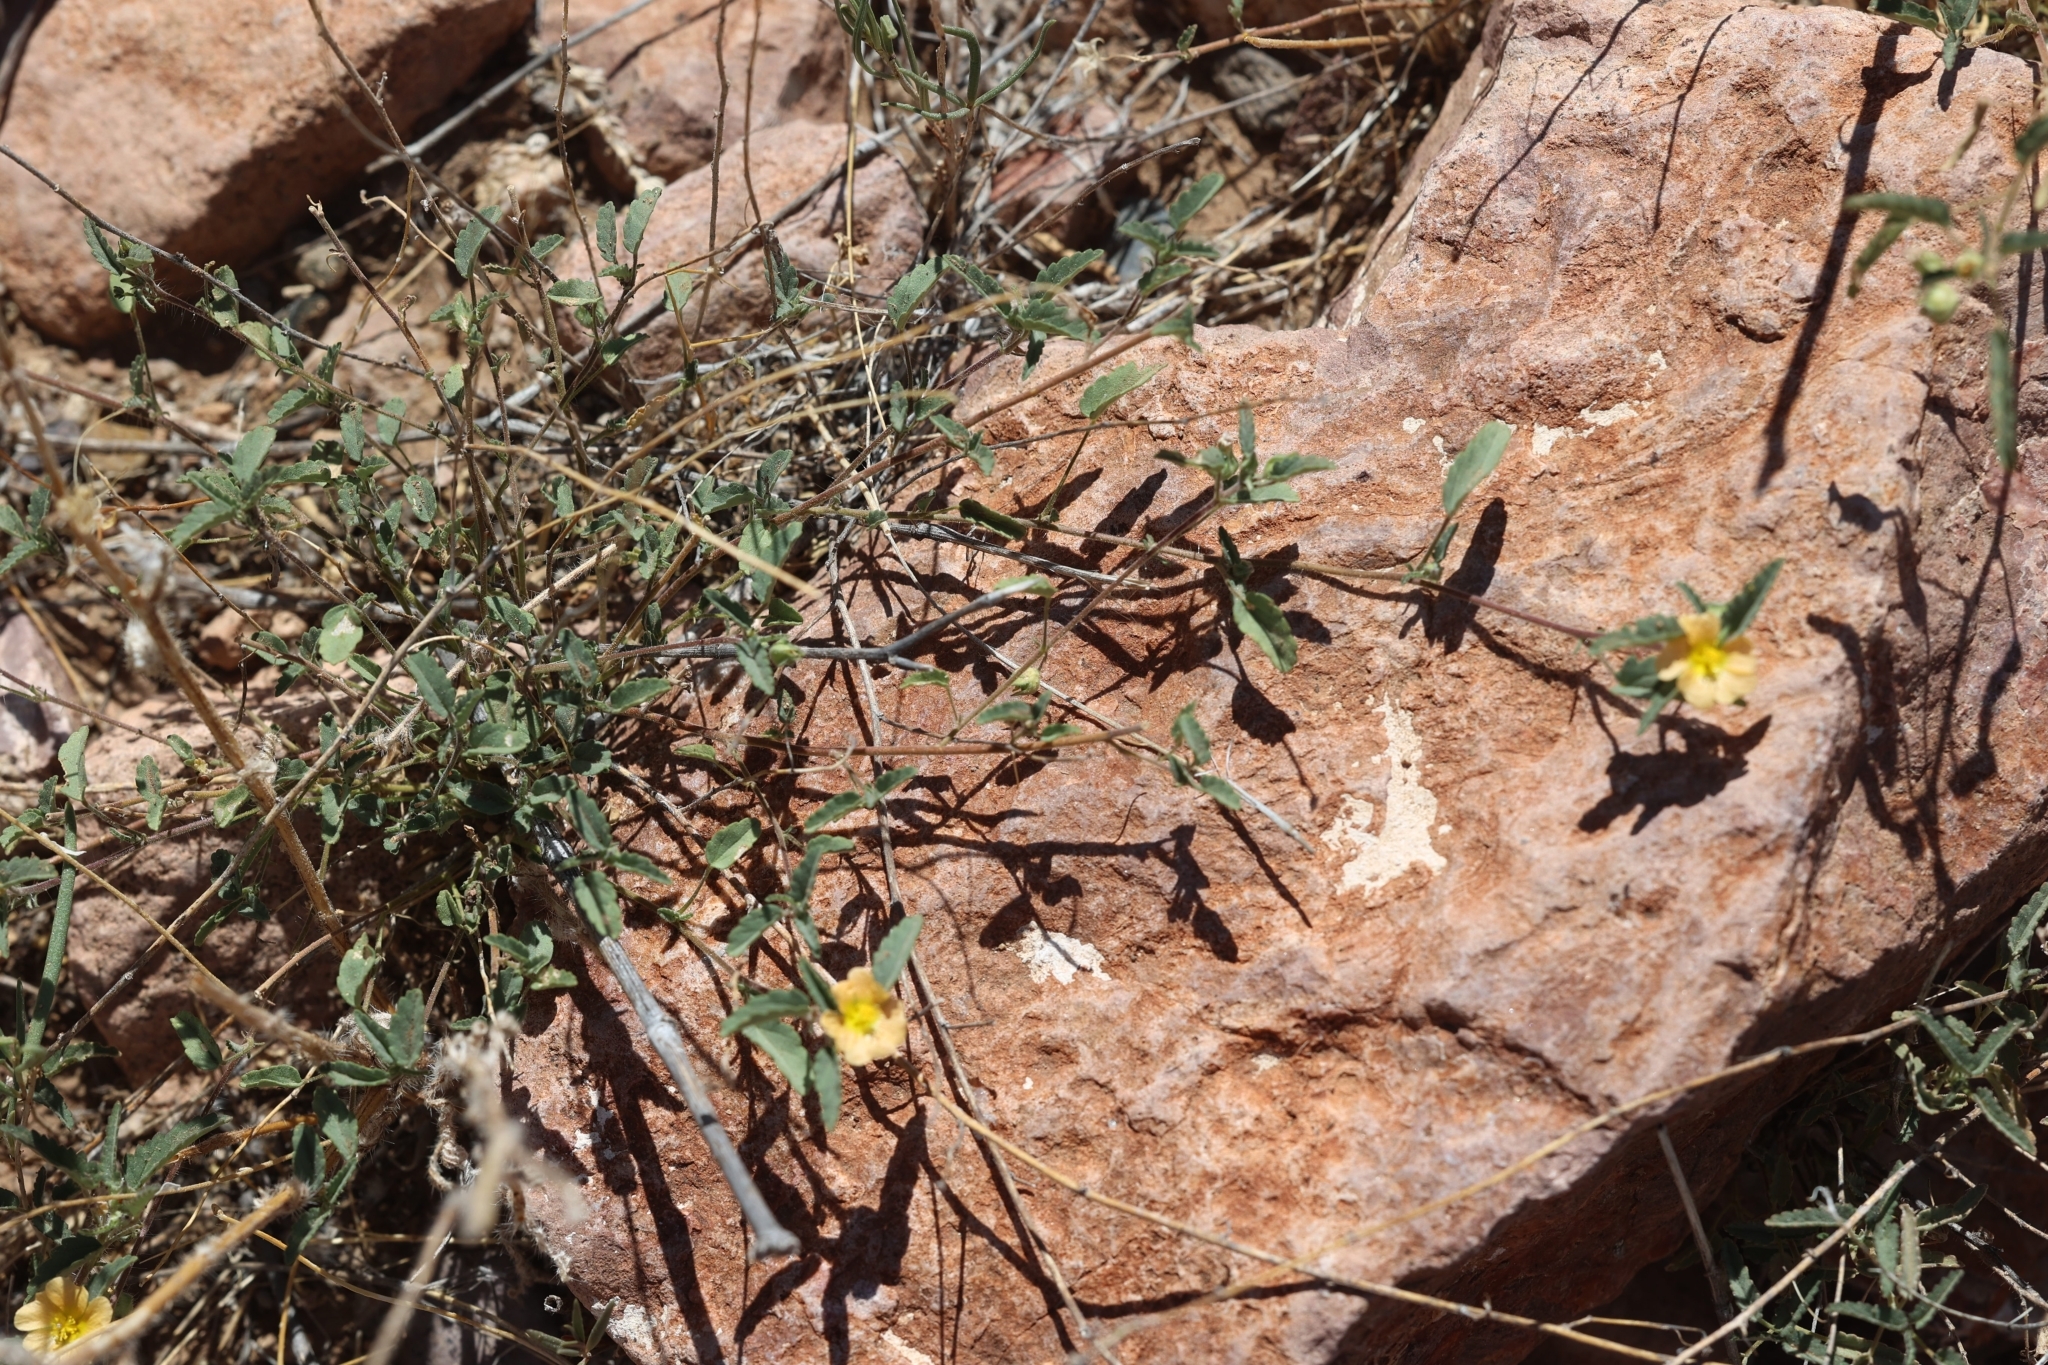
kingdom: Plantae
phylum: Tracheophyta
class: Magnoliopsida
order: Malvales
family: Malvaceae
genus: Sida
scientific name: Sida abutilifolia
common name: Spreading fanpetals
